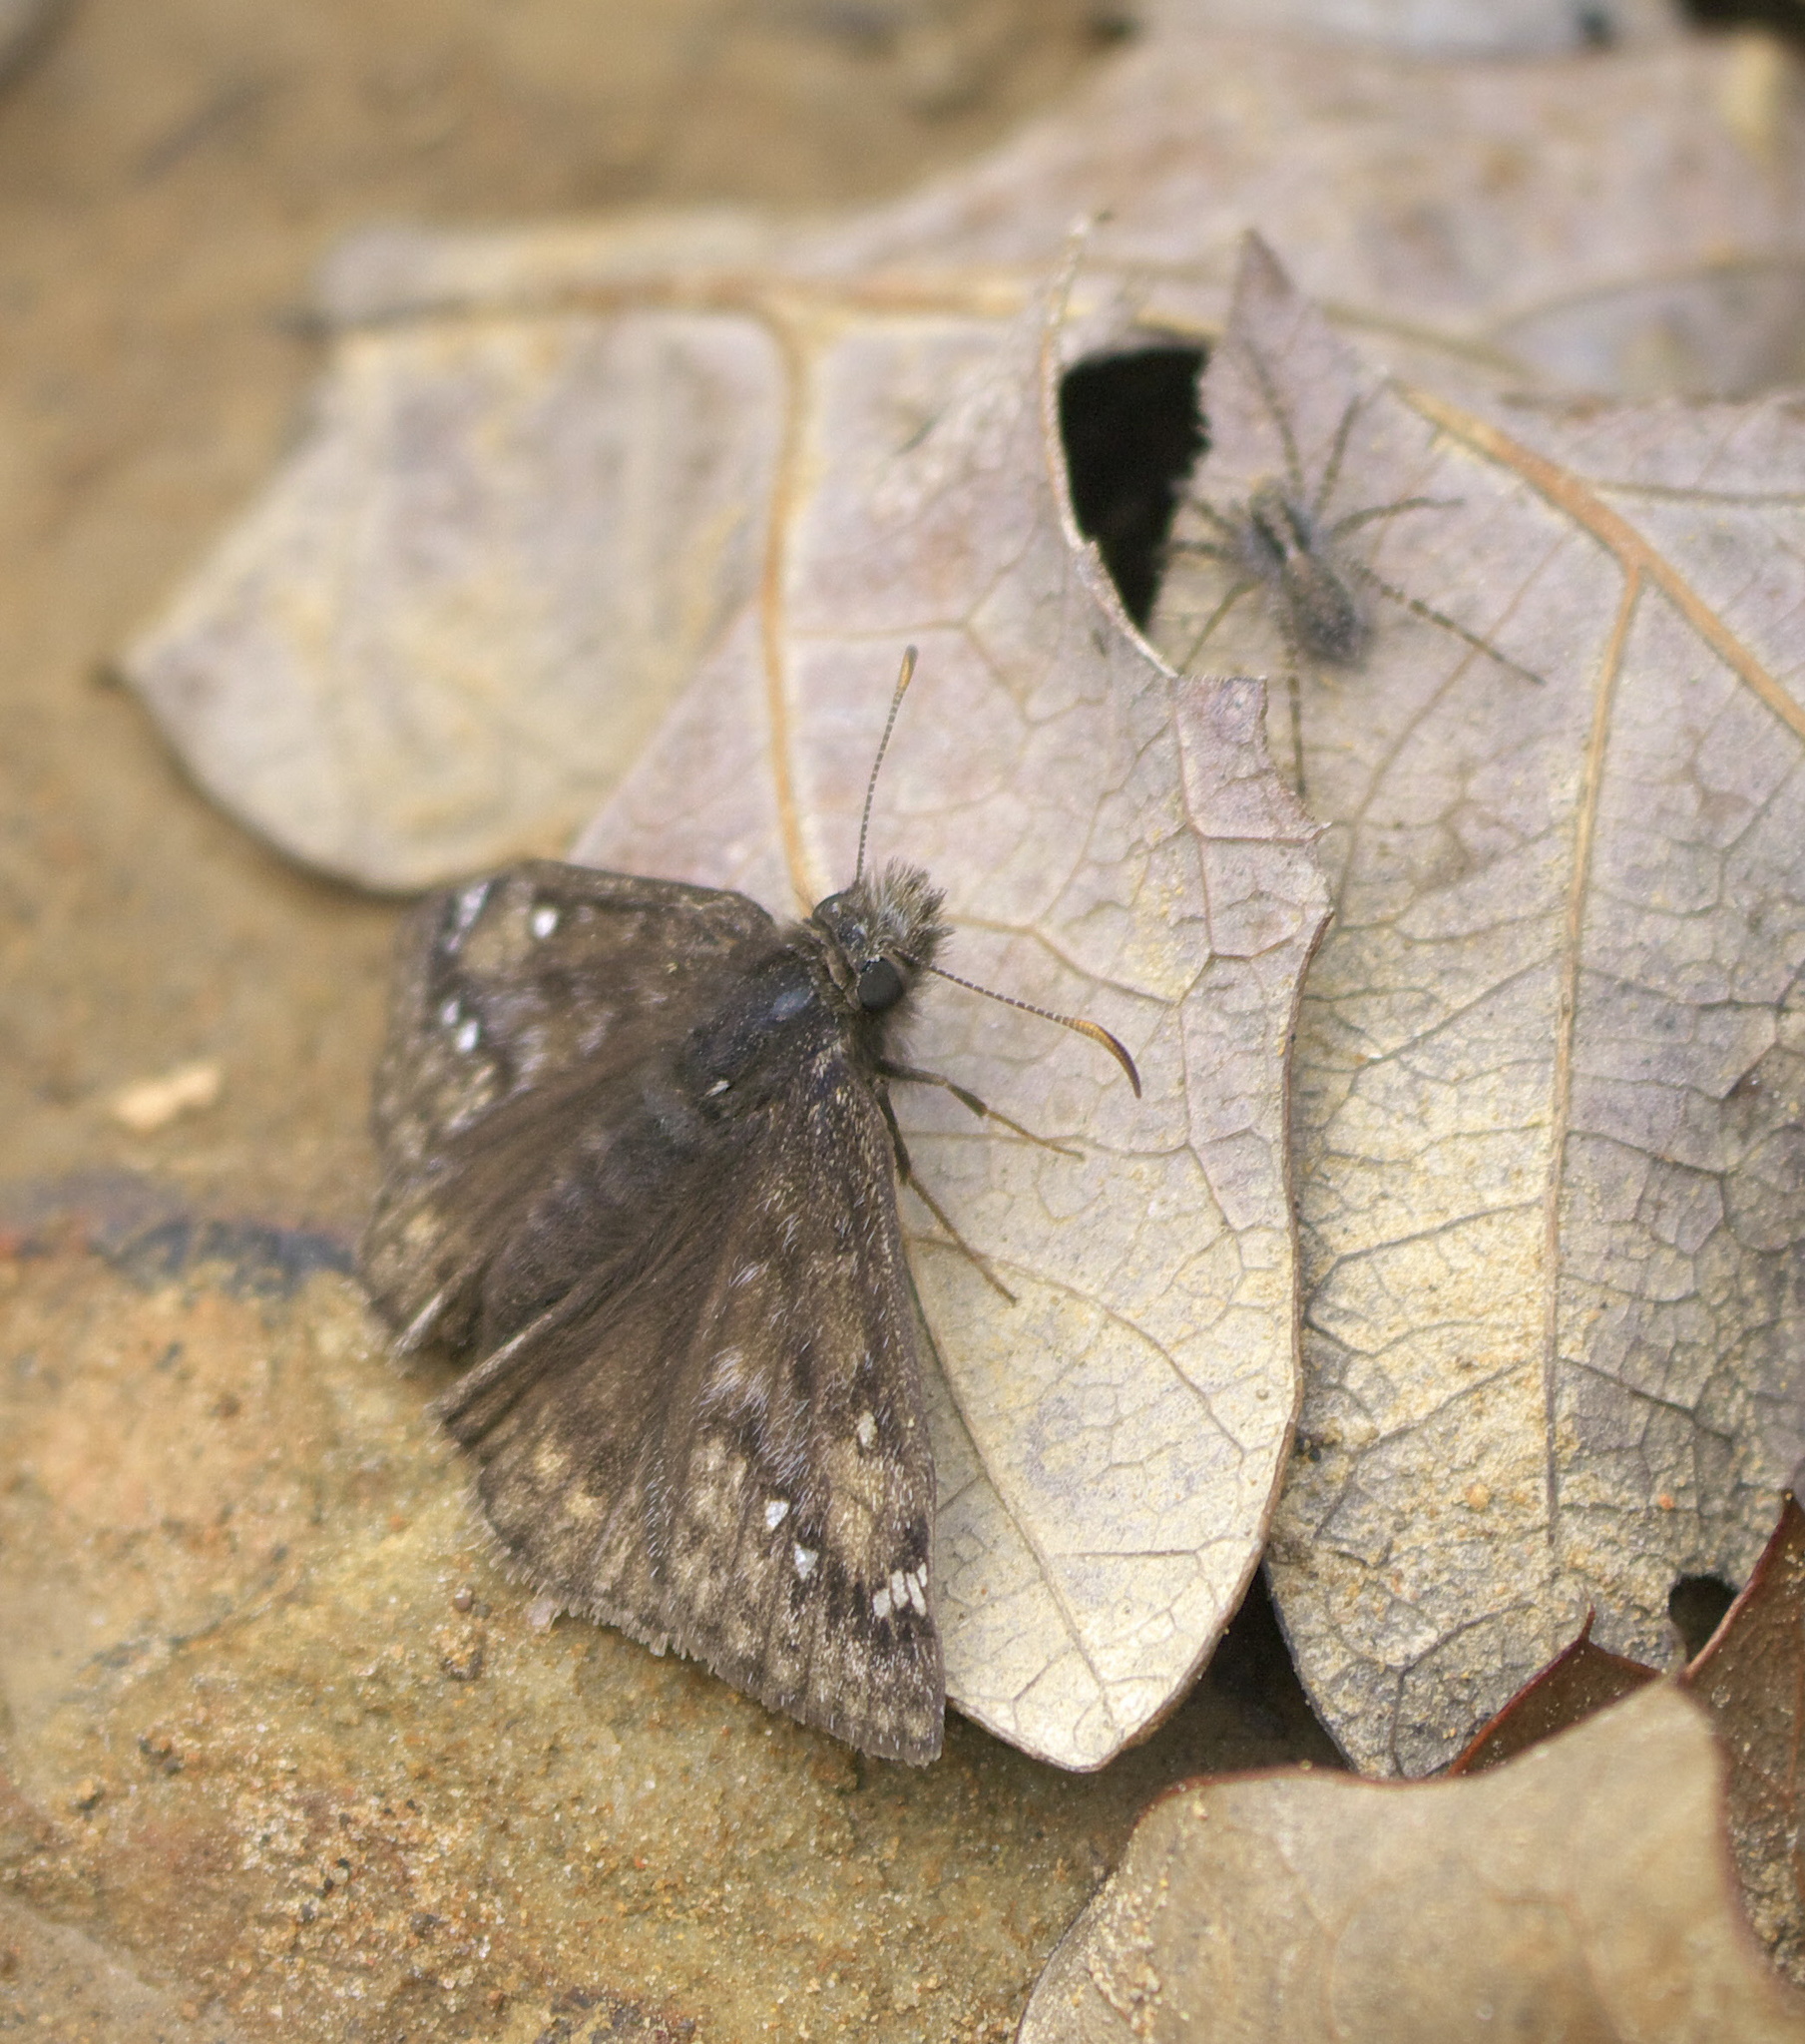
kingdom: Animalia
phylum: Arthropoda
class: Insecta
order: Lepidoptera
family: Hesperiidae
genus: Erynnis
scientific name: Erynnis juvenalis
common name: Juvenal's duskywing
